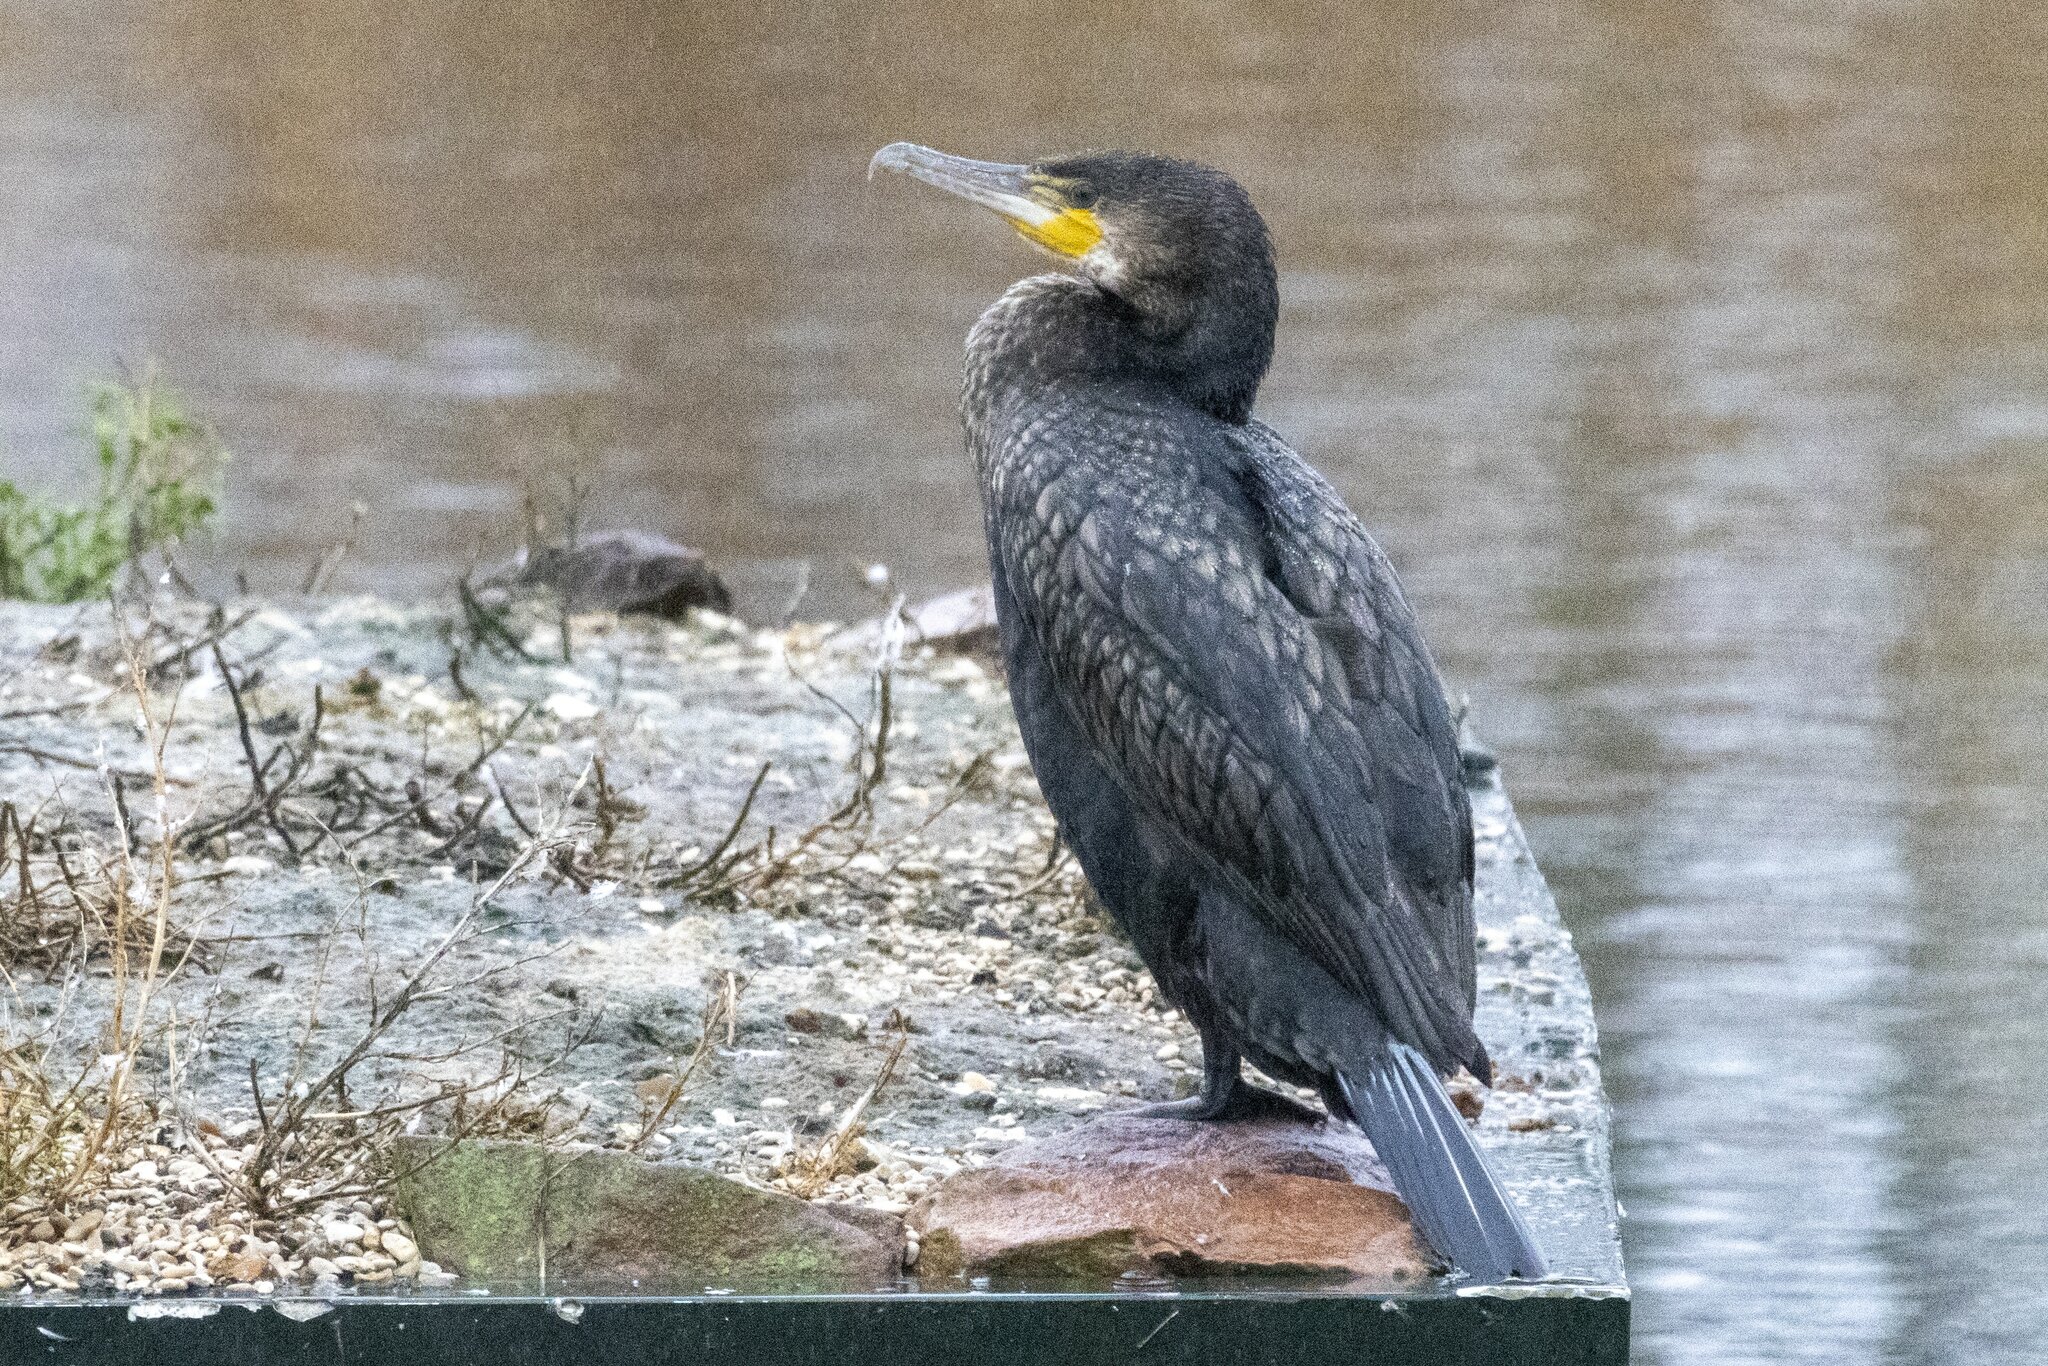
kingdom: Animalia
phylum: Chordata
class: Aves
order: Suliformes
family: Phalacrocoracidae
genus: Phalacrocorax
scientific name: Phalacrocorax carbo
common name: Great cormorant
